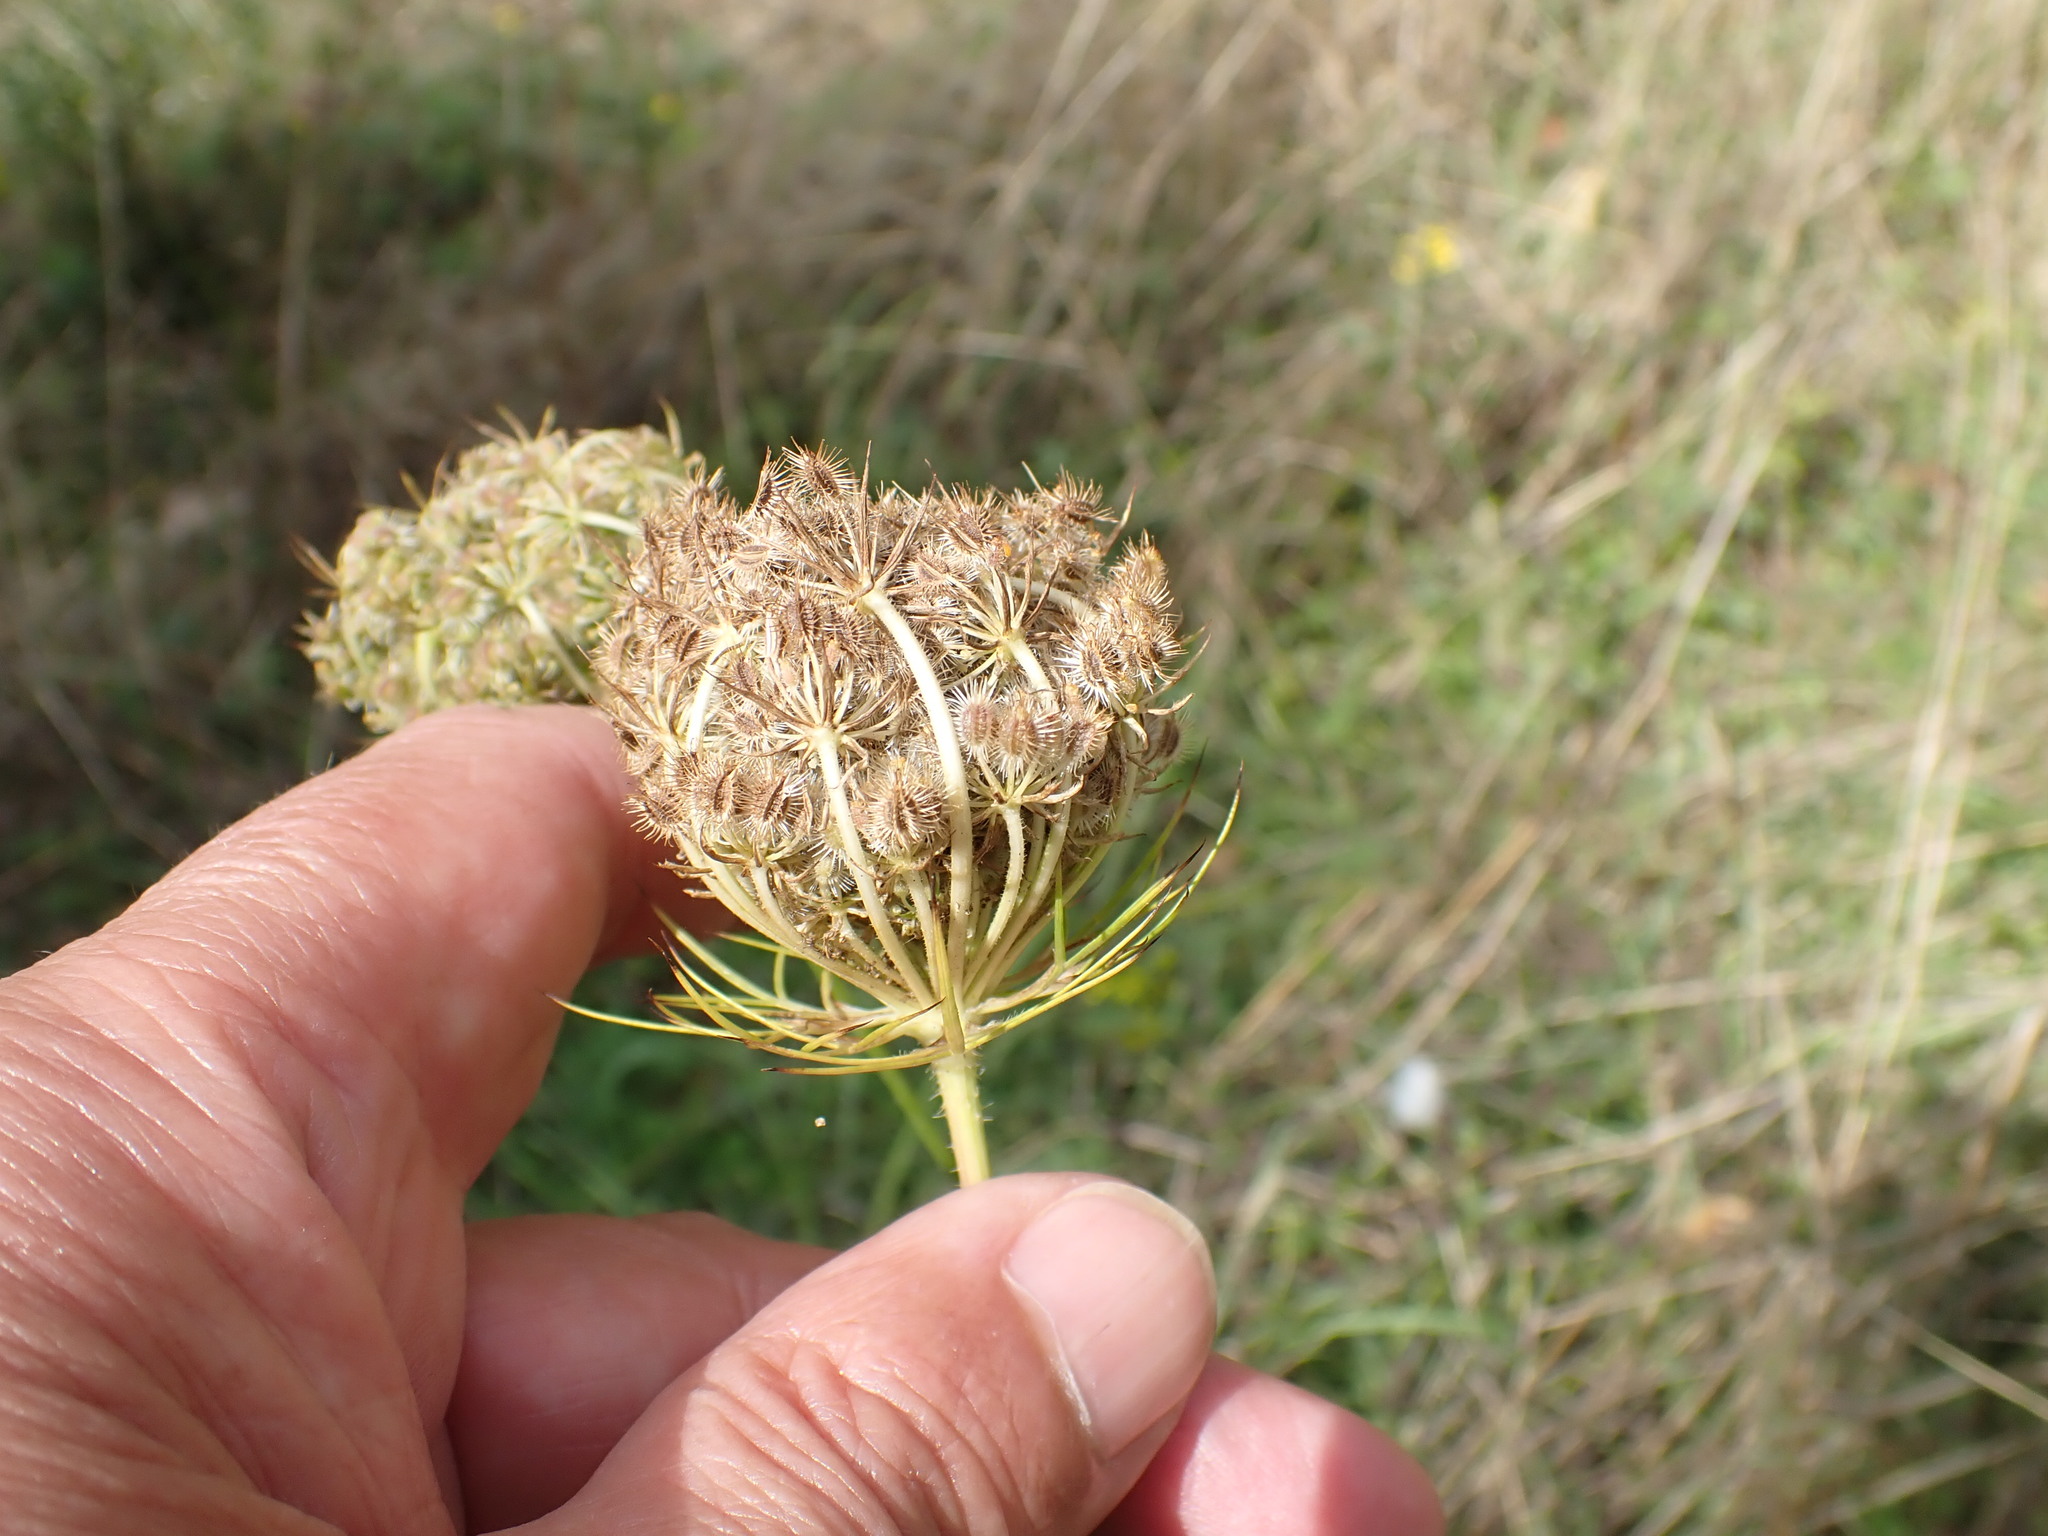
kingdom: Plantae
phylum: Tracheophyta
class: Magnoliopsida
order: Apiales
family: Apiaceae
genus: Daucus
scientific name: Daucus carota
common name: Wild carrot
